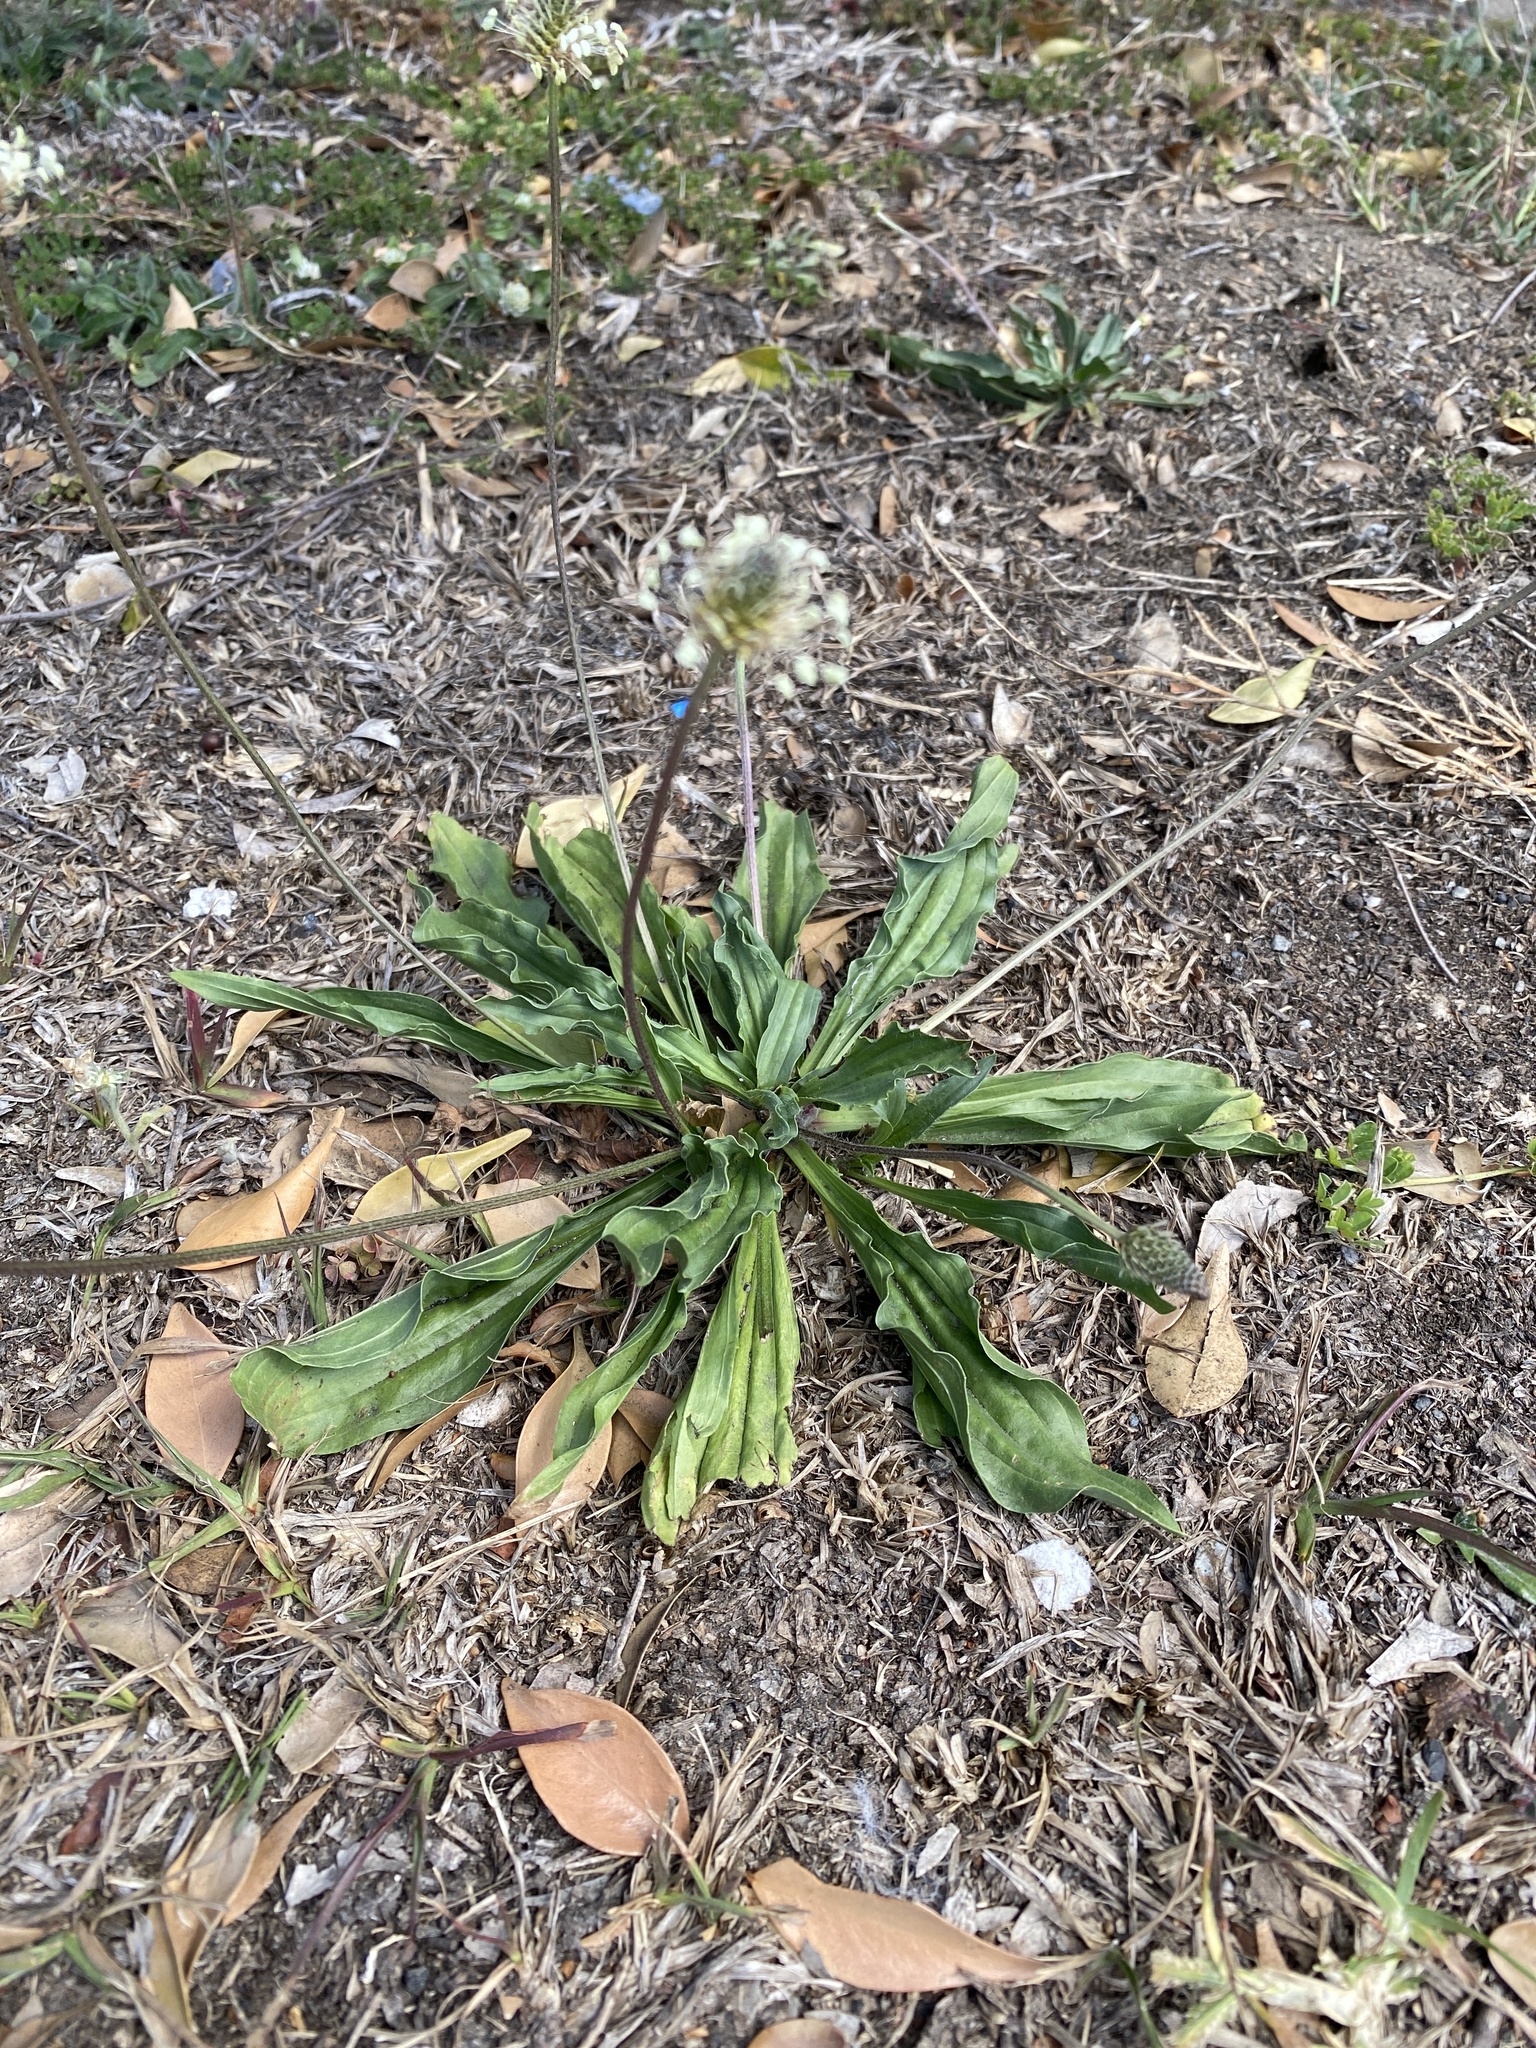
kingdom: Plantae
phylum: Tracheophyta
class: Magnoliopsida
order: Lamiales
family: Plantaginaceae
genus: Plantago
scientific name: Plantago lanceolata
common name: Ribwort plantain
